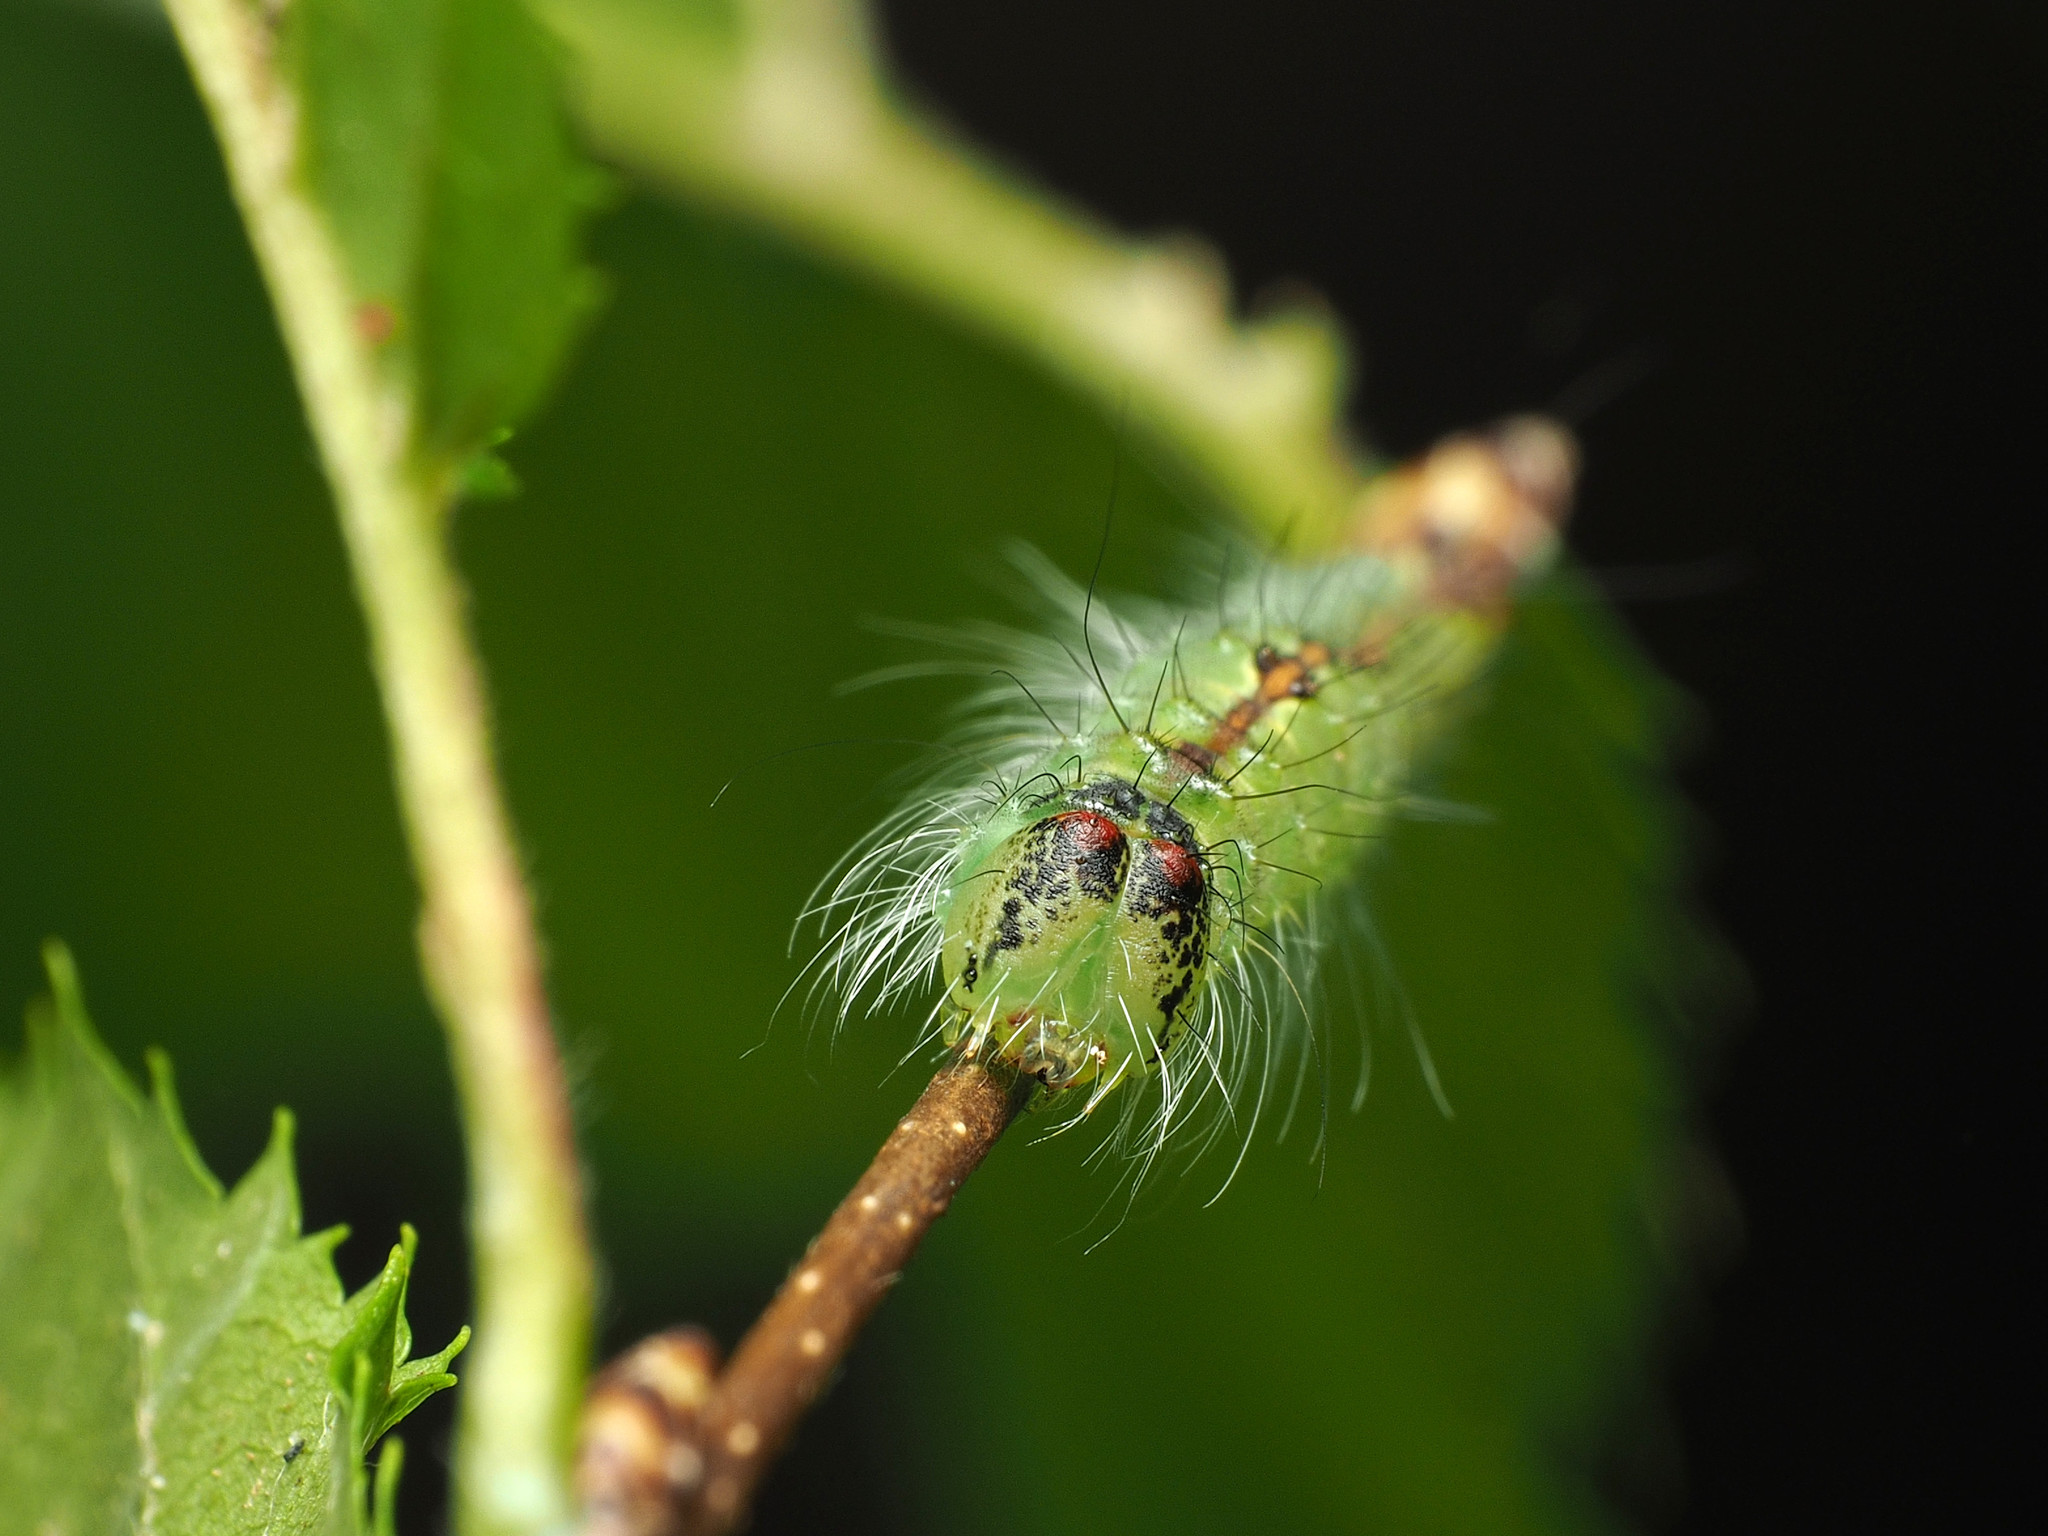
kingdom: Animalia
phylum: Arthropoda
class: Insecta
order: Lepidoptera
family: Noctuidae
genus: Acronicta
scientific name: Acronicta laetifica
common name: Pleasant dagger
